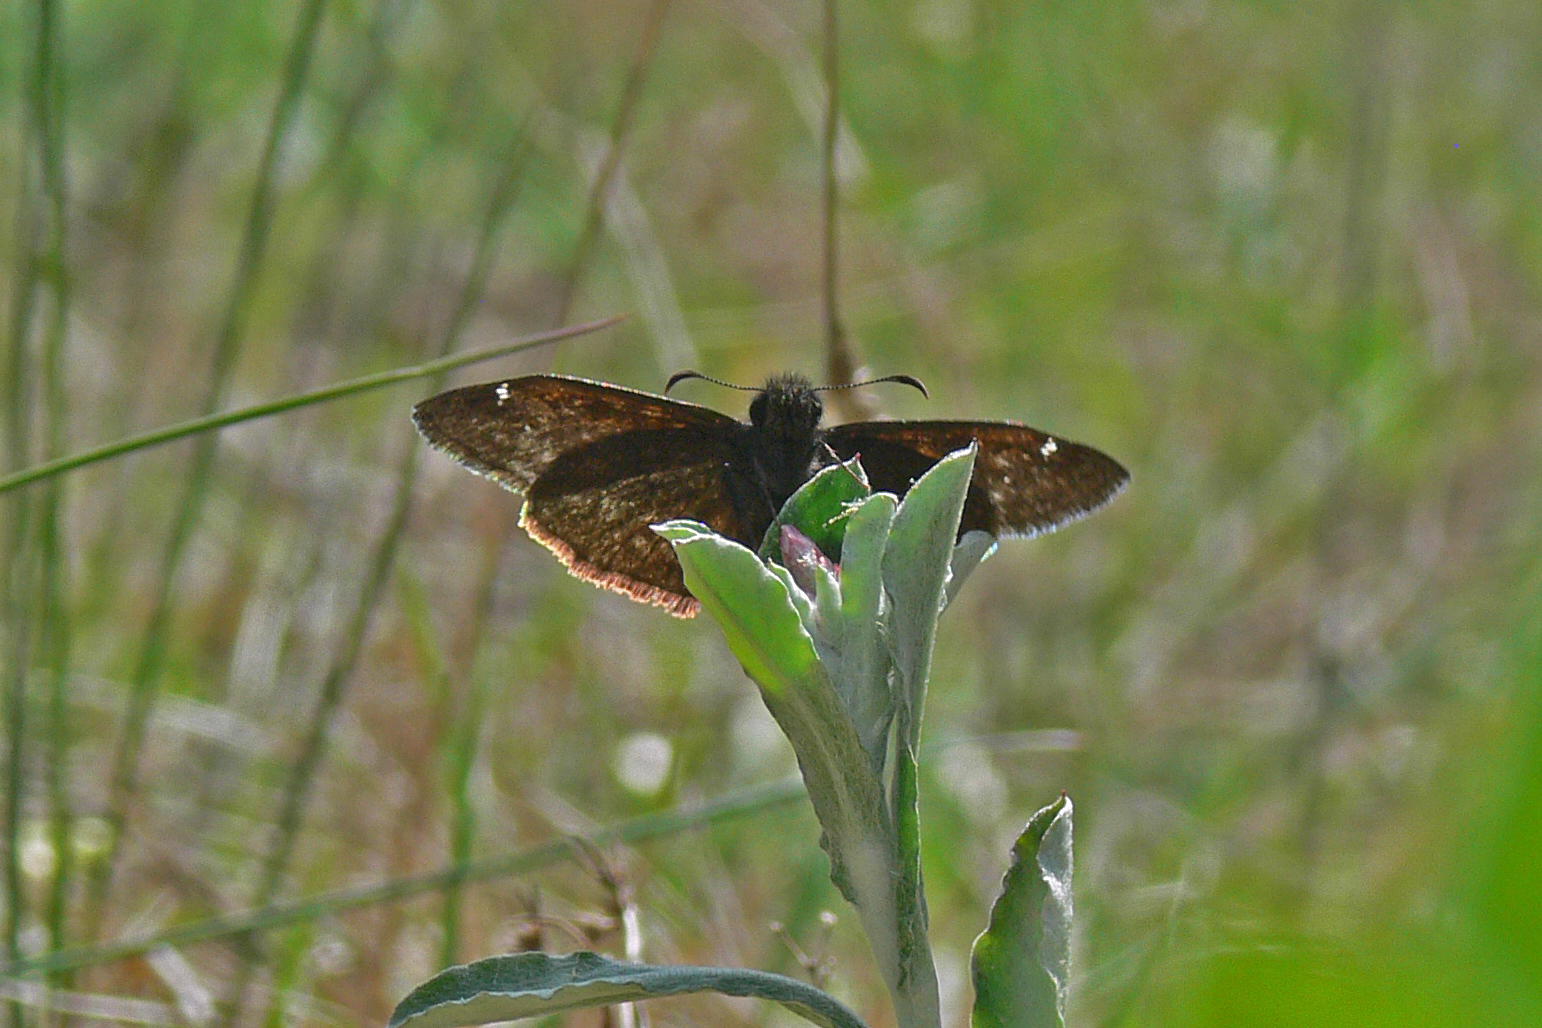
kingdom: Animalia
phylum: Arthropoda
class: Insecta
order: Lepidoptera
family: Hesperiidae
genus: Erynnis
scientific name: Erynnis zarucco
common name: Zarucco duskywing
